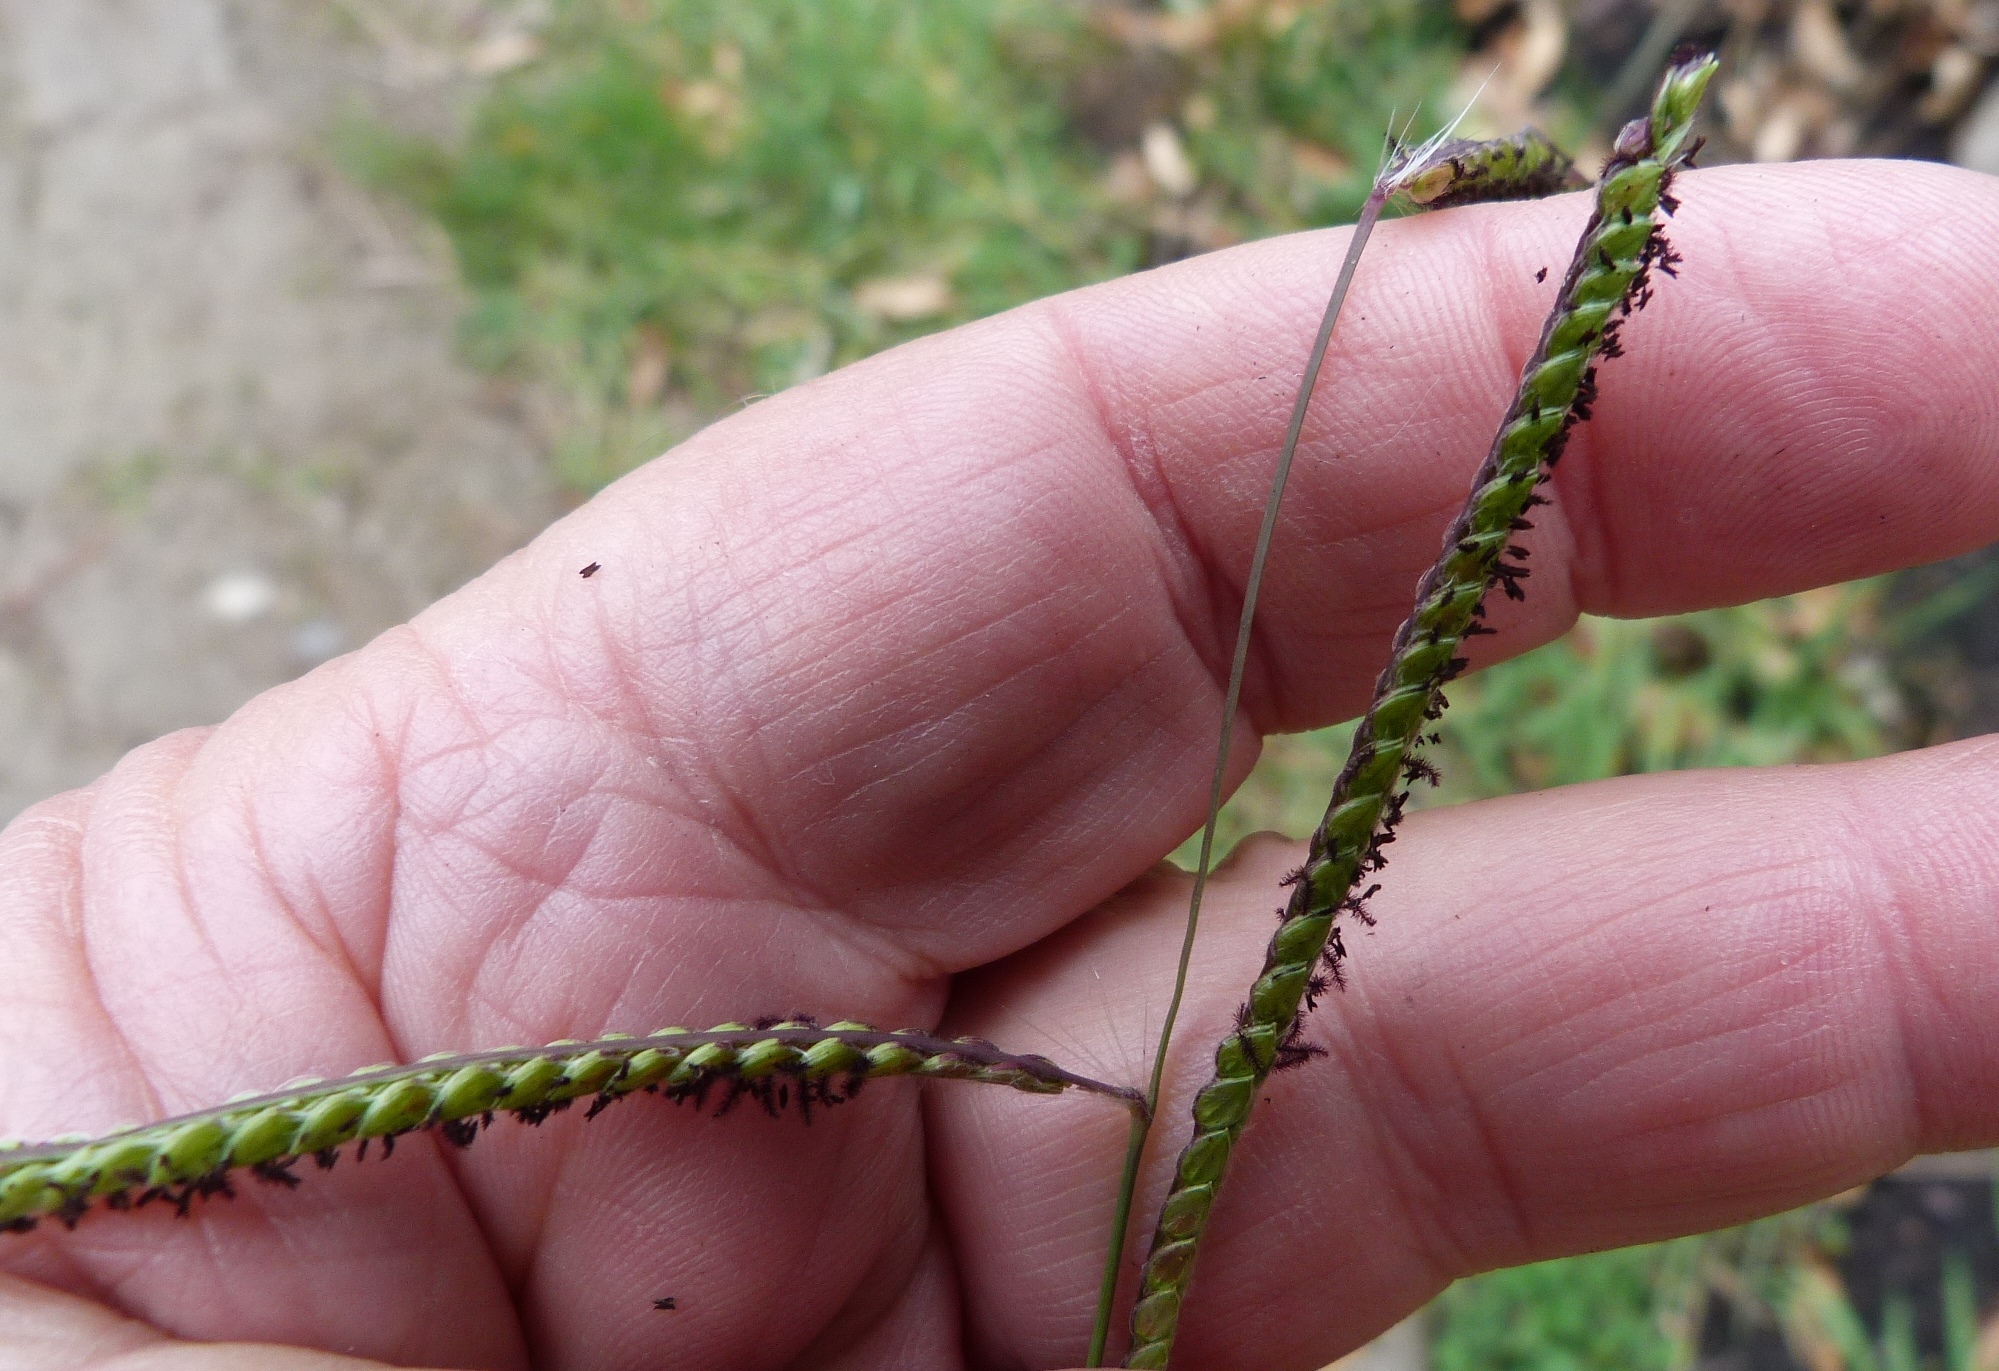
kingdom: Plantae
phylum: Tracheophyta
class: Liliopsida
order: Poales
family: Poaceae
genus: Paspalum
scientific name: Paspalum dilatatum
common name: Dallisgrass
